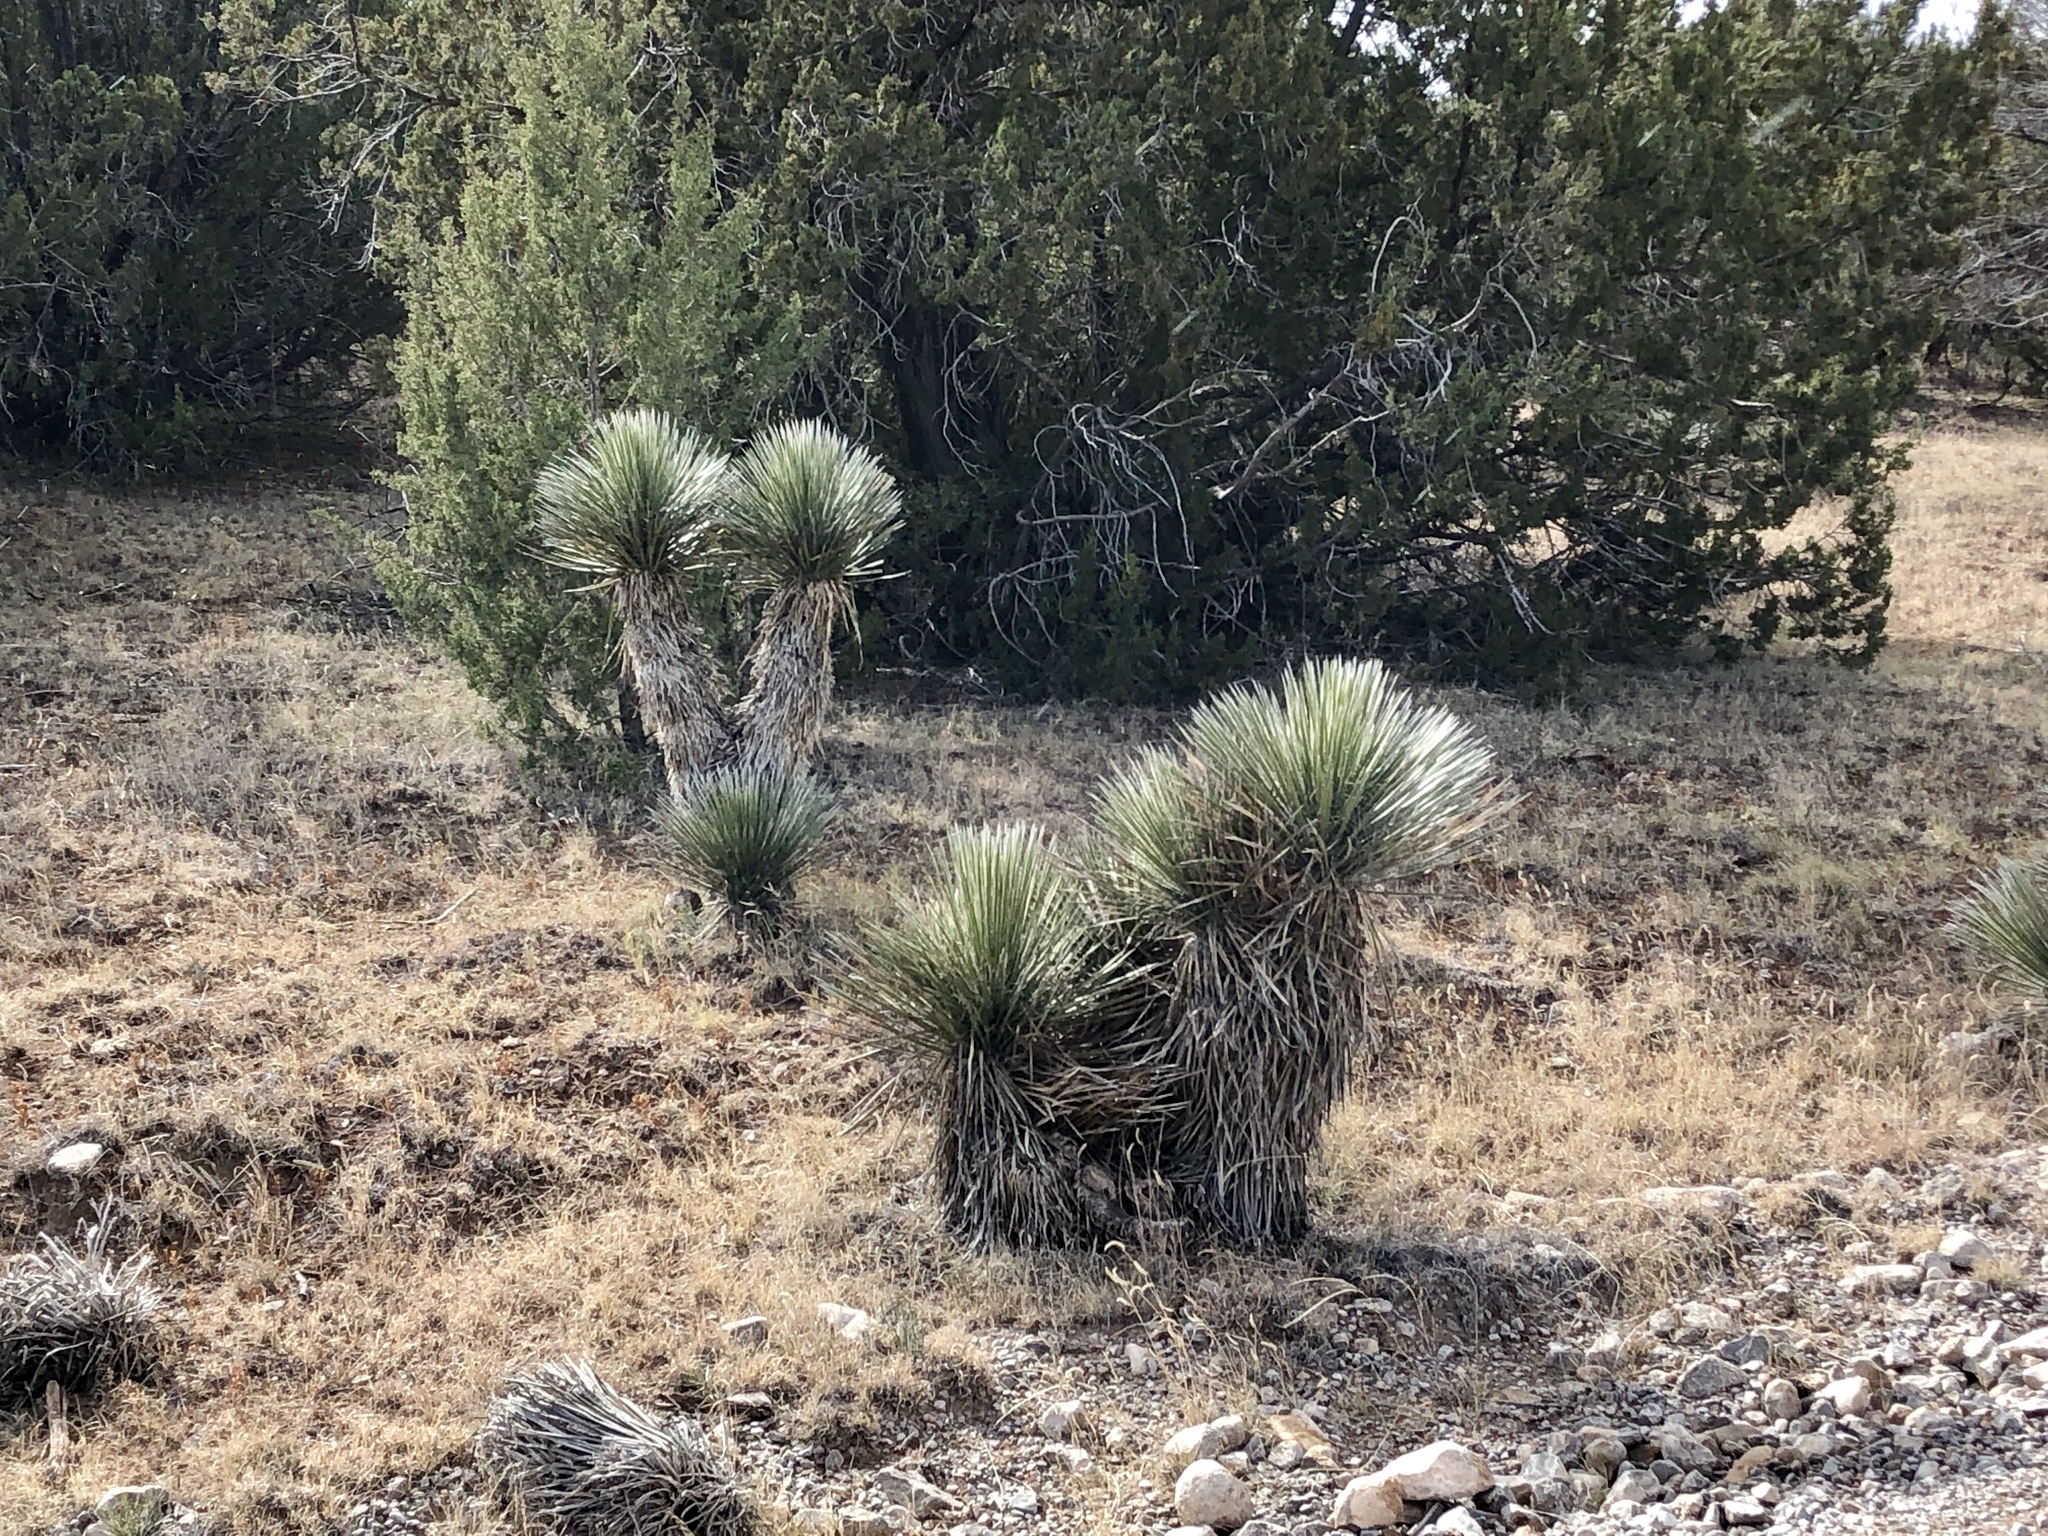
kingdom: Plantae
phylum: Tracheophyta
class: Liliopsida
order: Asparagales
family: Asparagaceae
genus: Yucca
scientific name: Yucca elata
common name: Palmella
